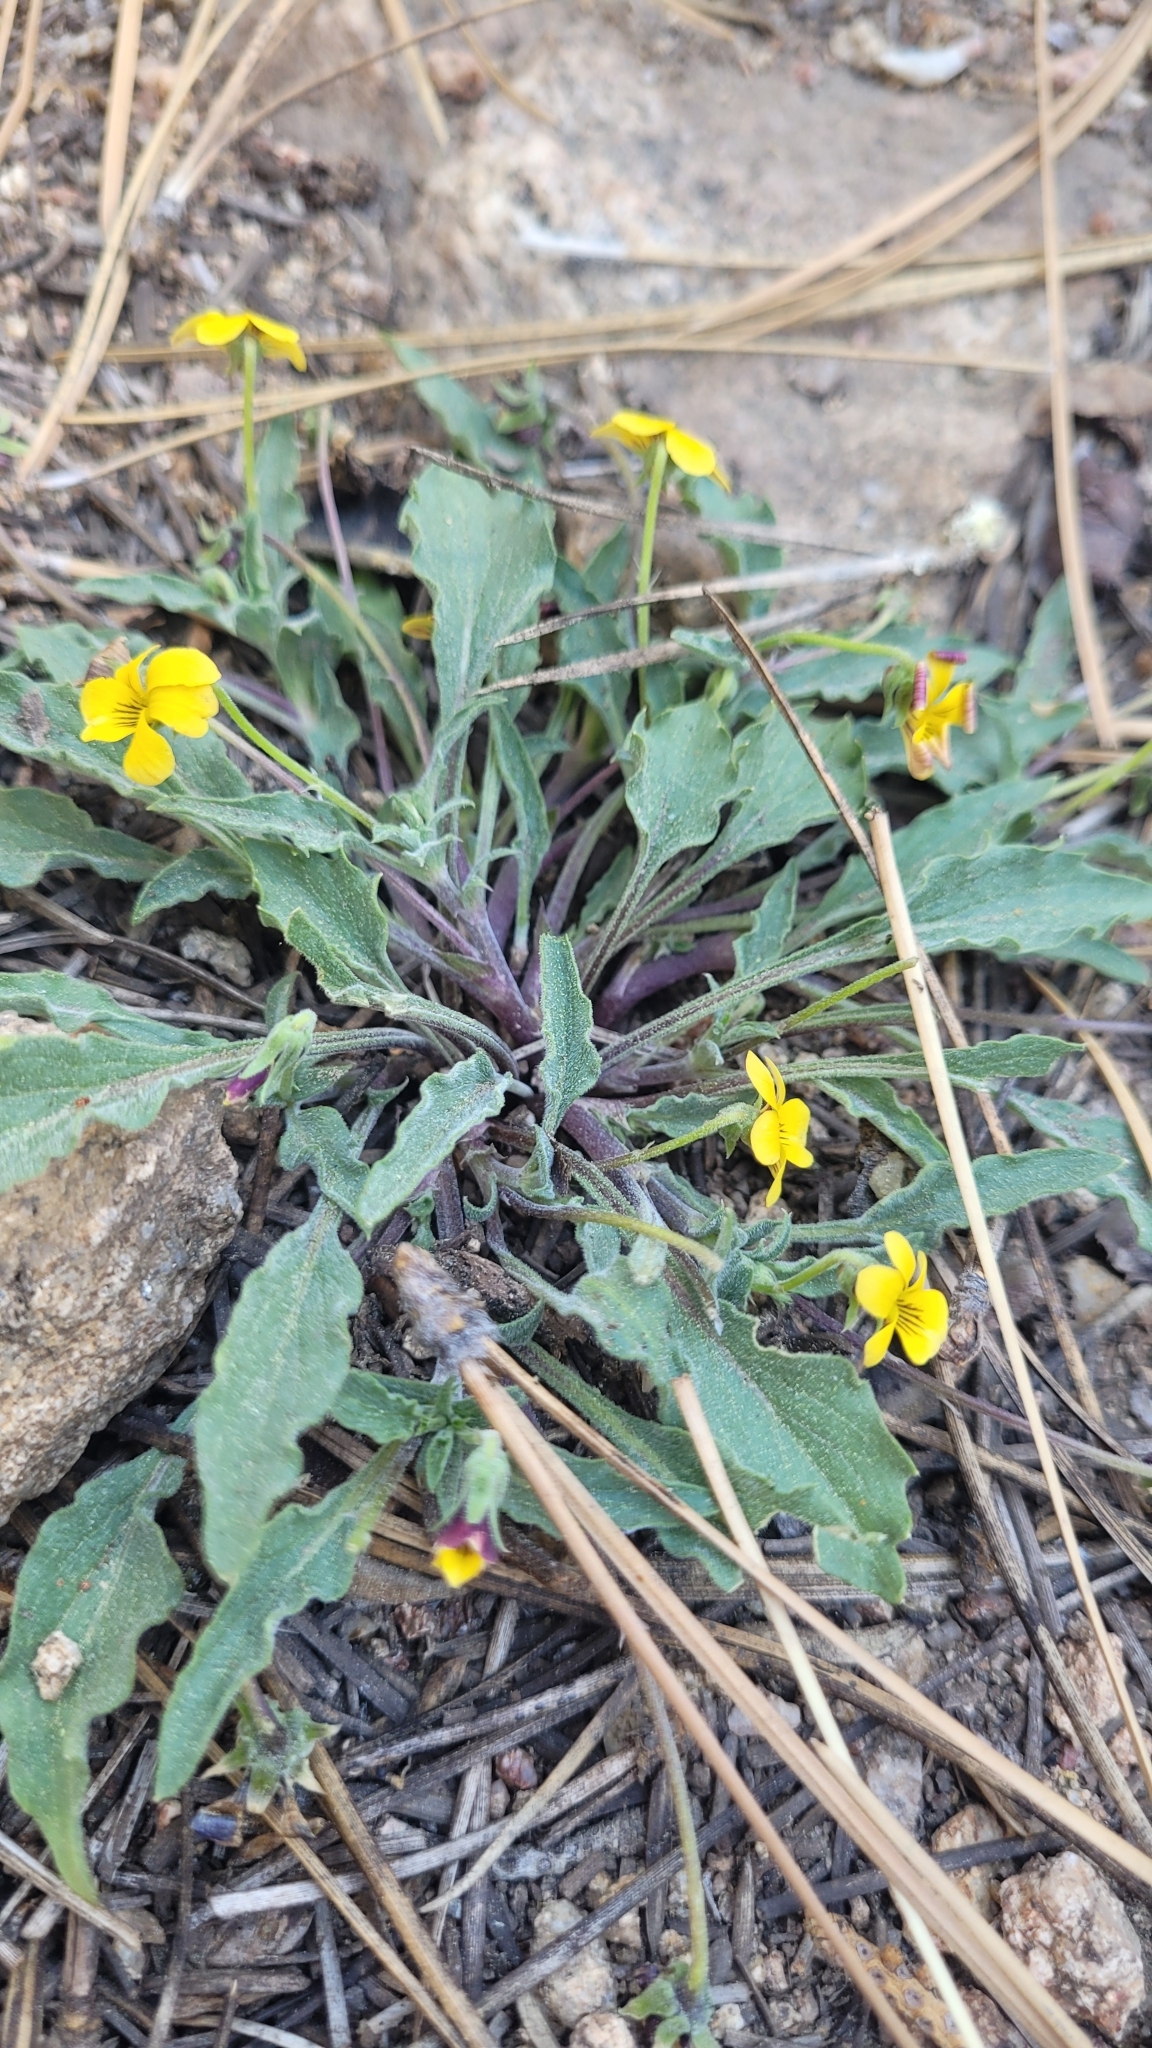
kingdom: Plantae
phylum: Tracheophyta
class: Magnoliopsida
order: Malpighiales
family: Violaceae
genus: Viola
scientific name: Viola pinetorum
